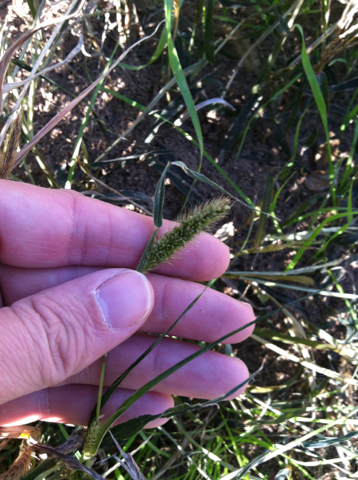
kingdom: Plantae
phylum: Tracheophyta
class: Liliopsida
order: Poales
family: Poaceae
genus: Setaria
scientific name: Setaria viridis
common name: Green bristlegrass
